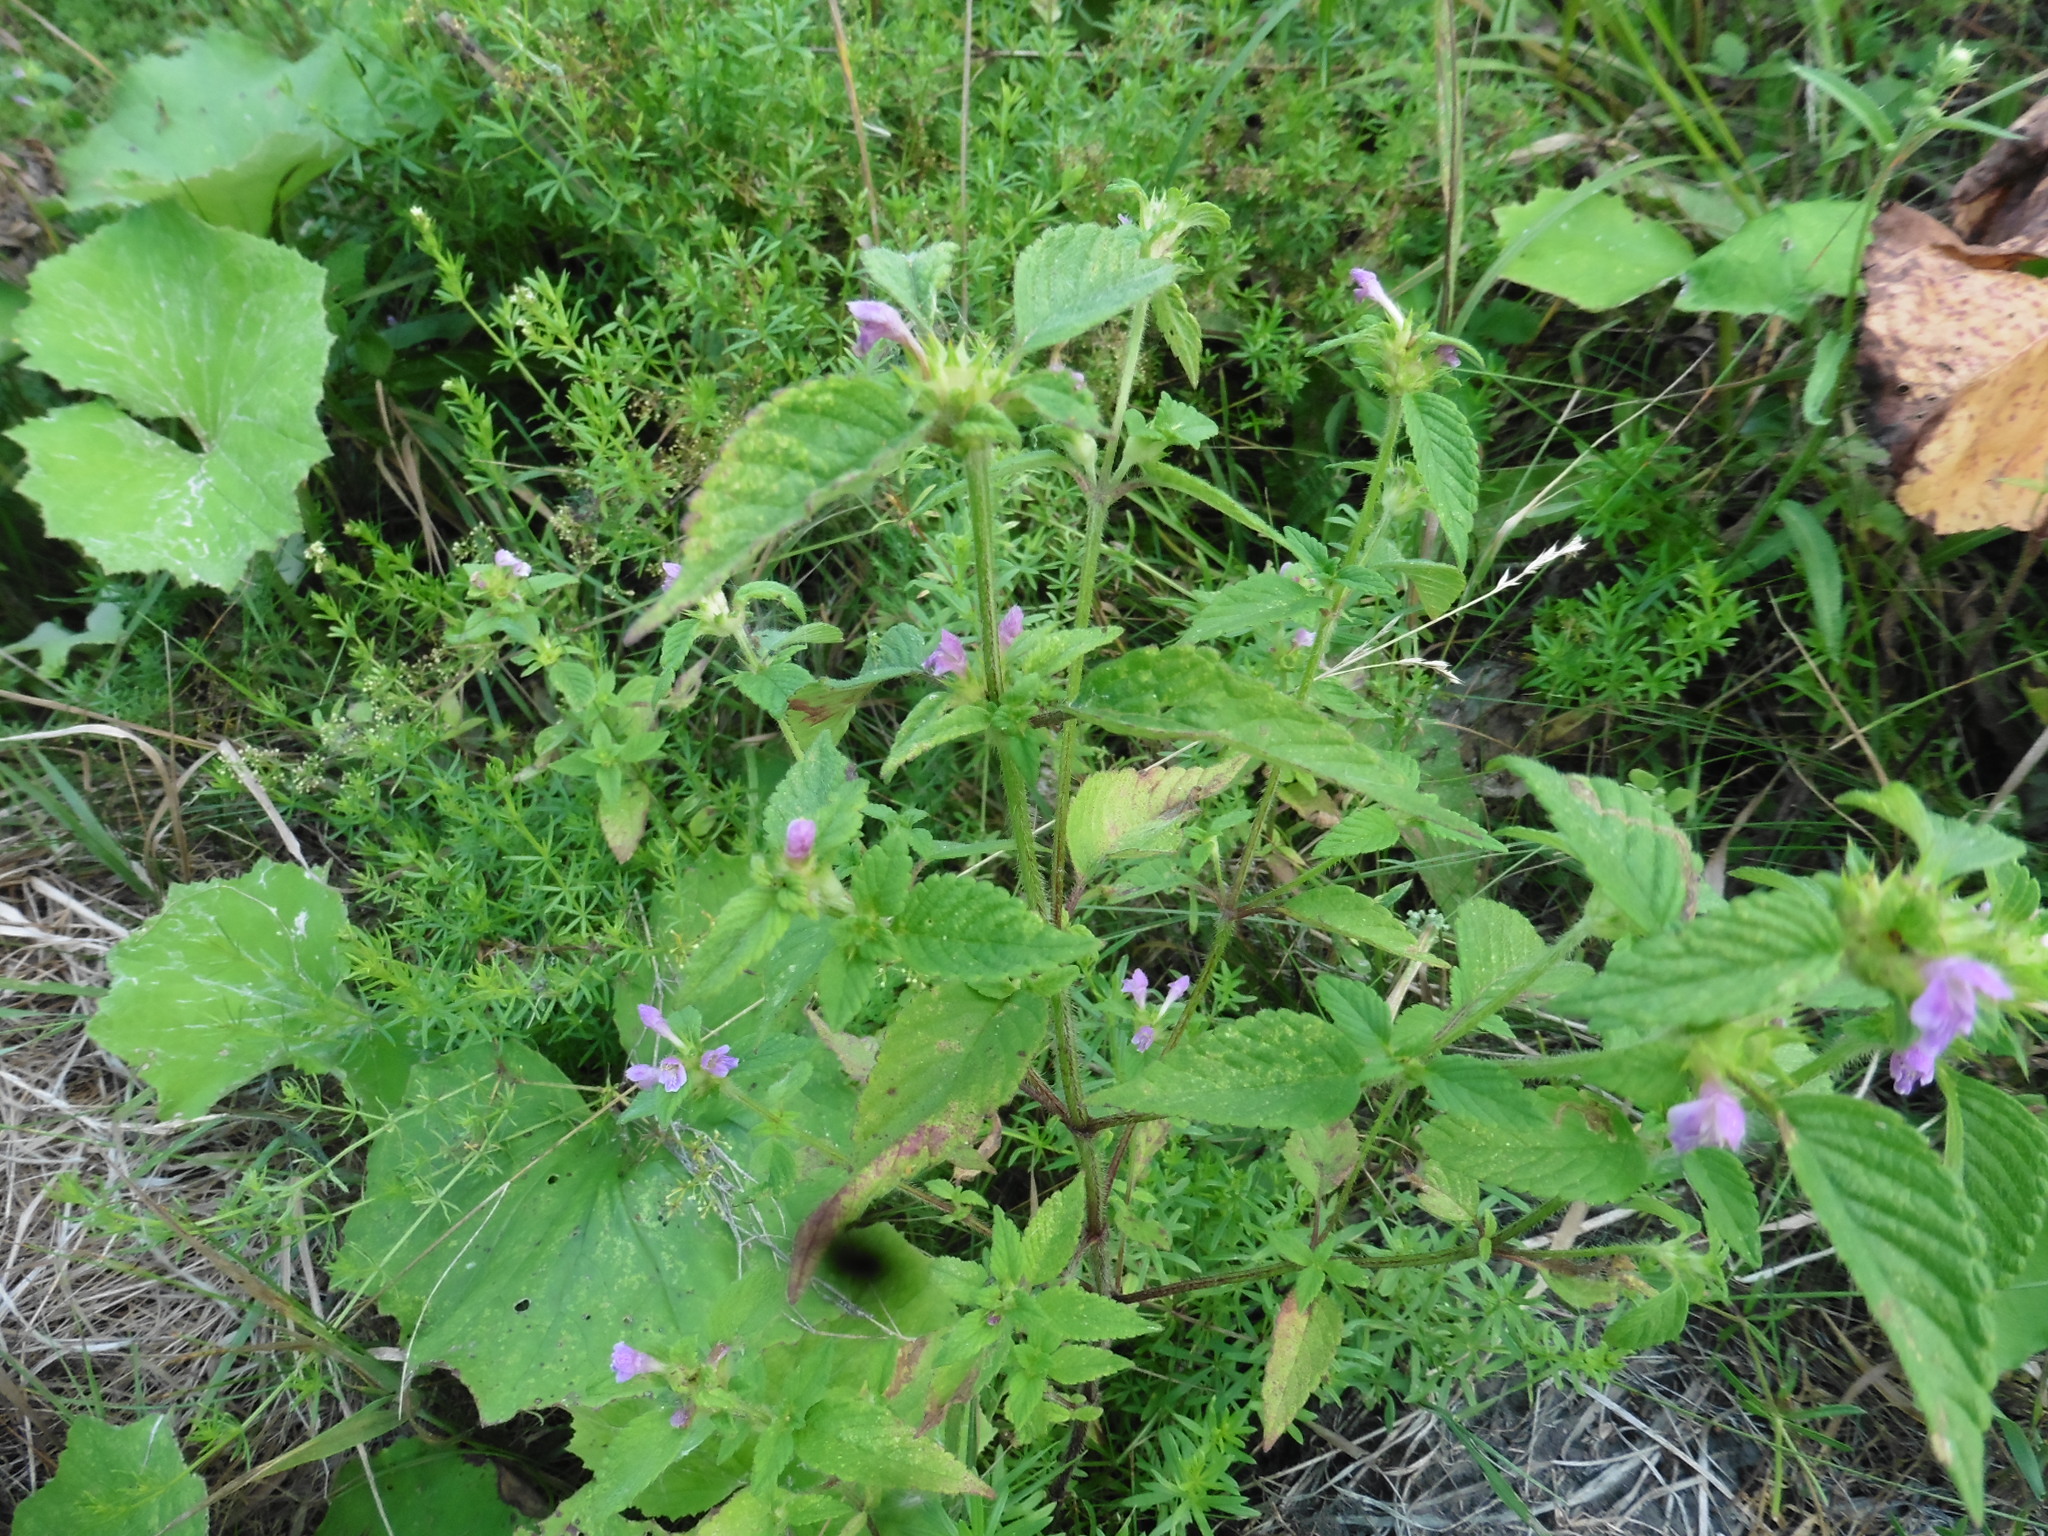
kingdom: Plantae
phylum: Tracheophyta
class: Magnoliopsida
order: Lamiales
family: Lamiaceae
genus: Galeopsis
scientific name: Galeopsis bifida
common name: Bifid hemp-nettle
